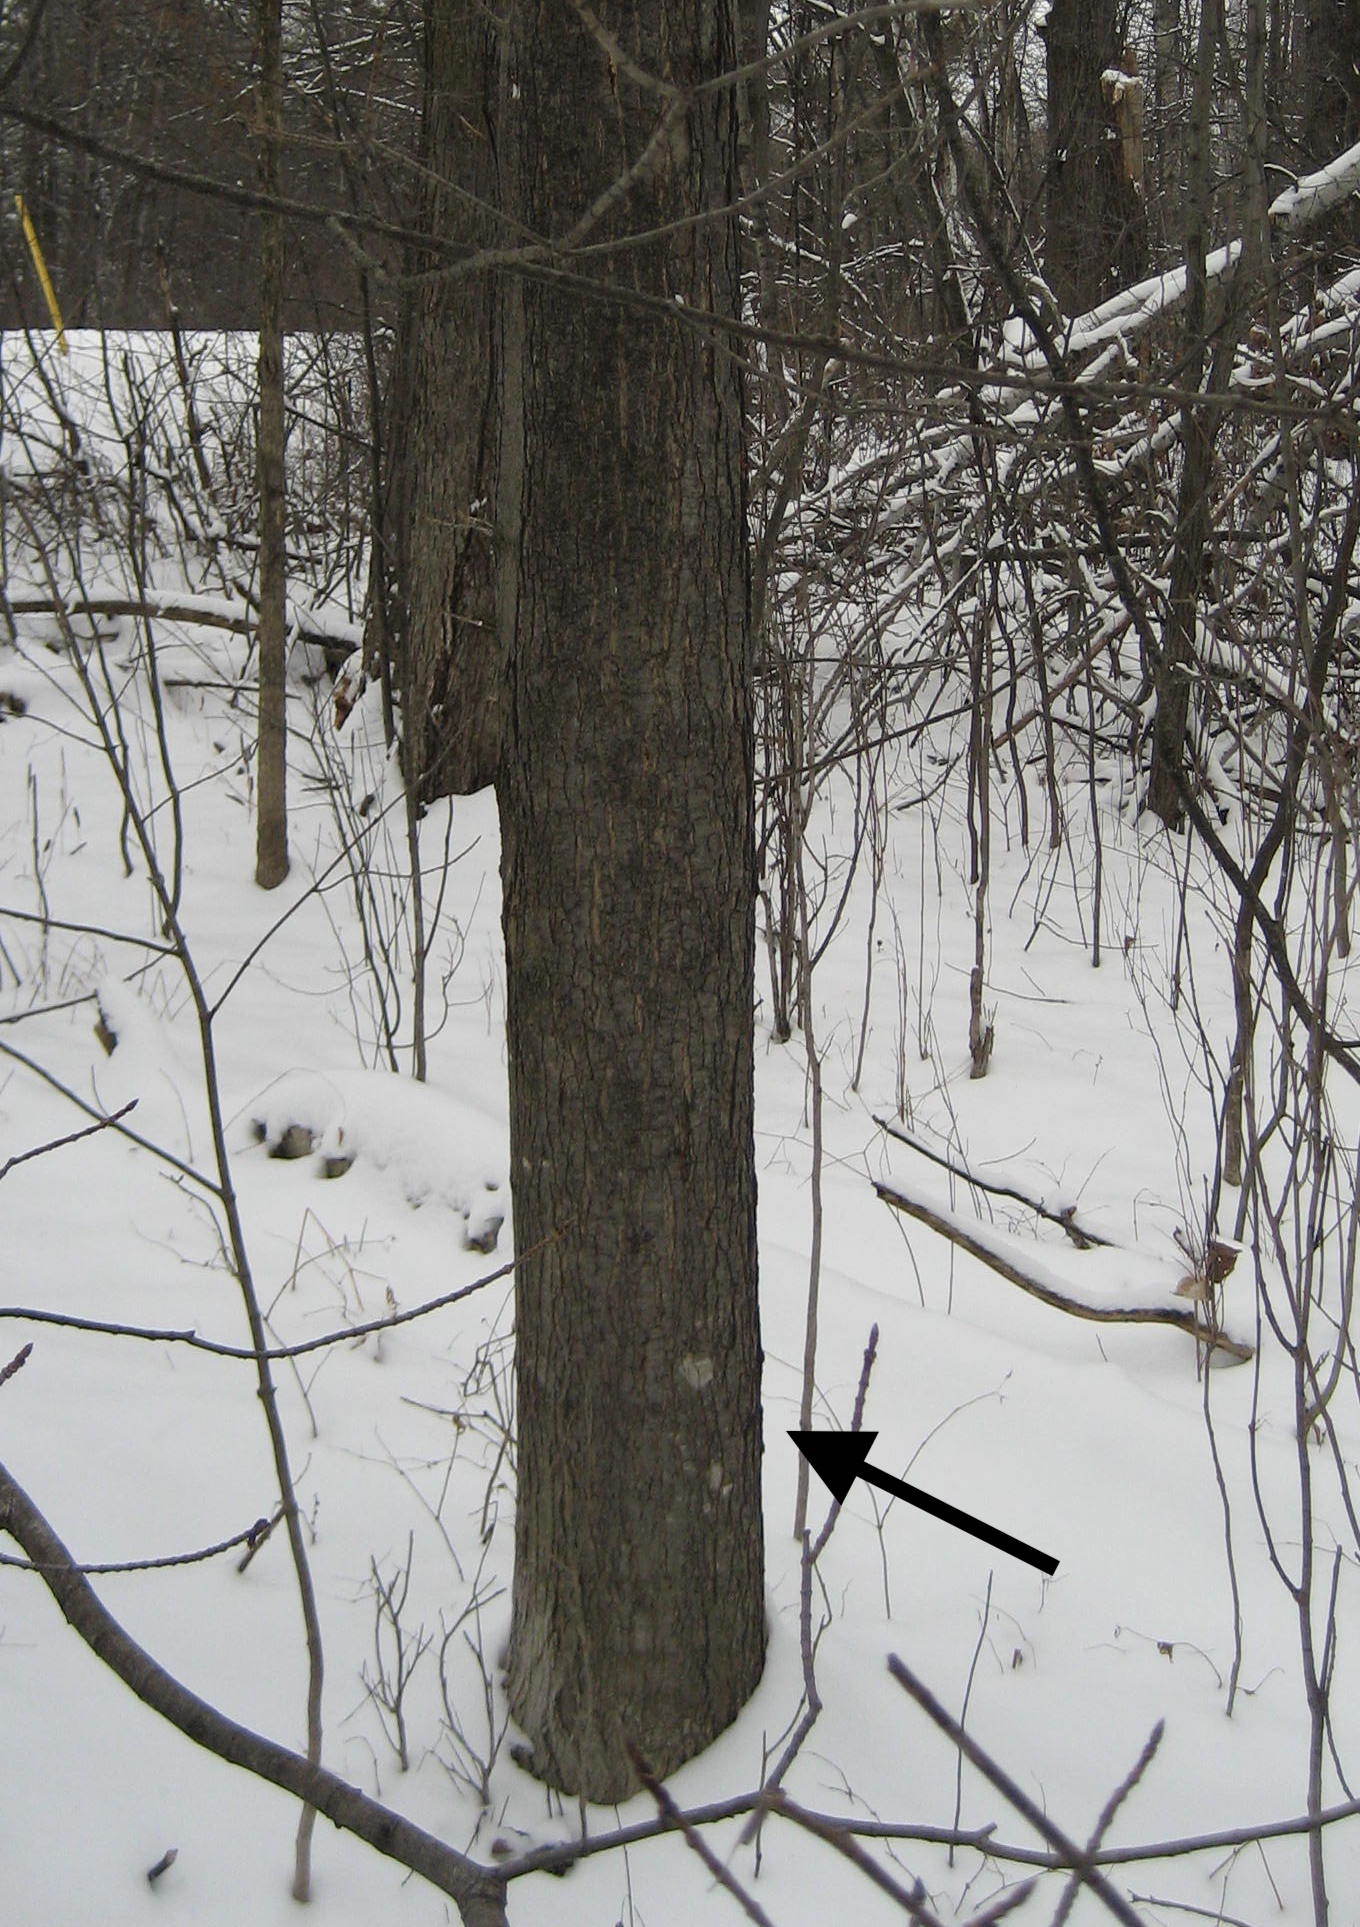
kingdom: Plantae
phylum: Tracheophyta
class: Magnoliopsida
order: Sapindales
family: Sapindaceae
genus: Acer
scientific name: Acer saccharum
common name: Sugar maple
